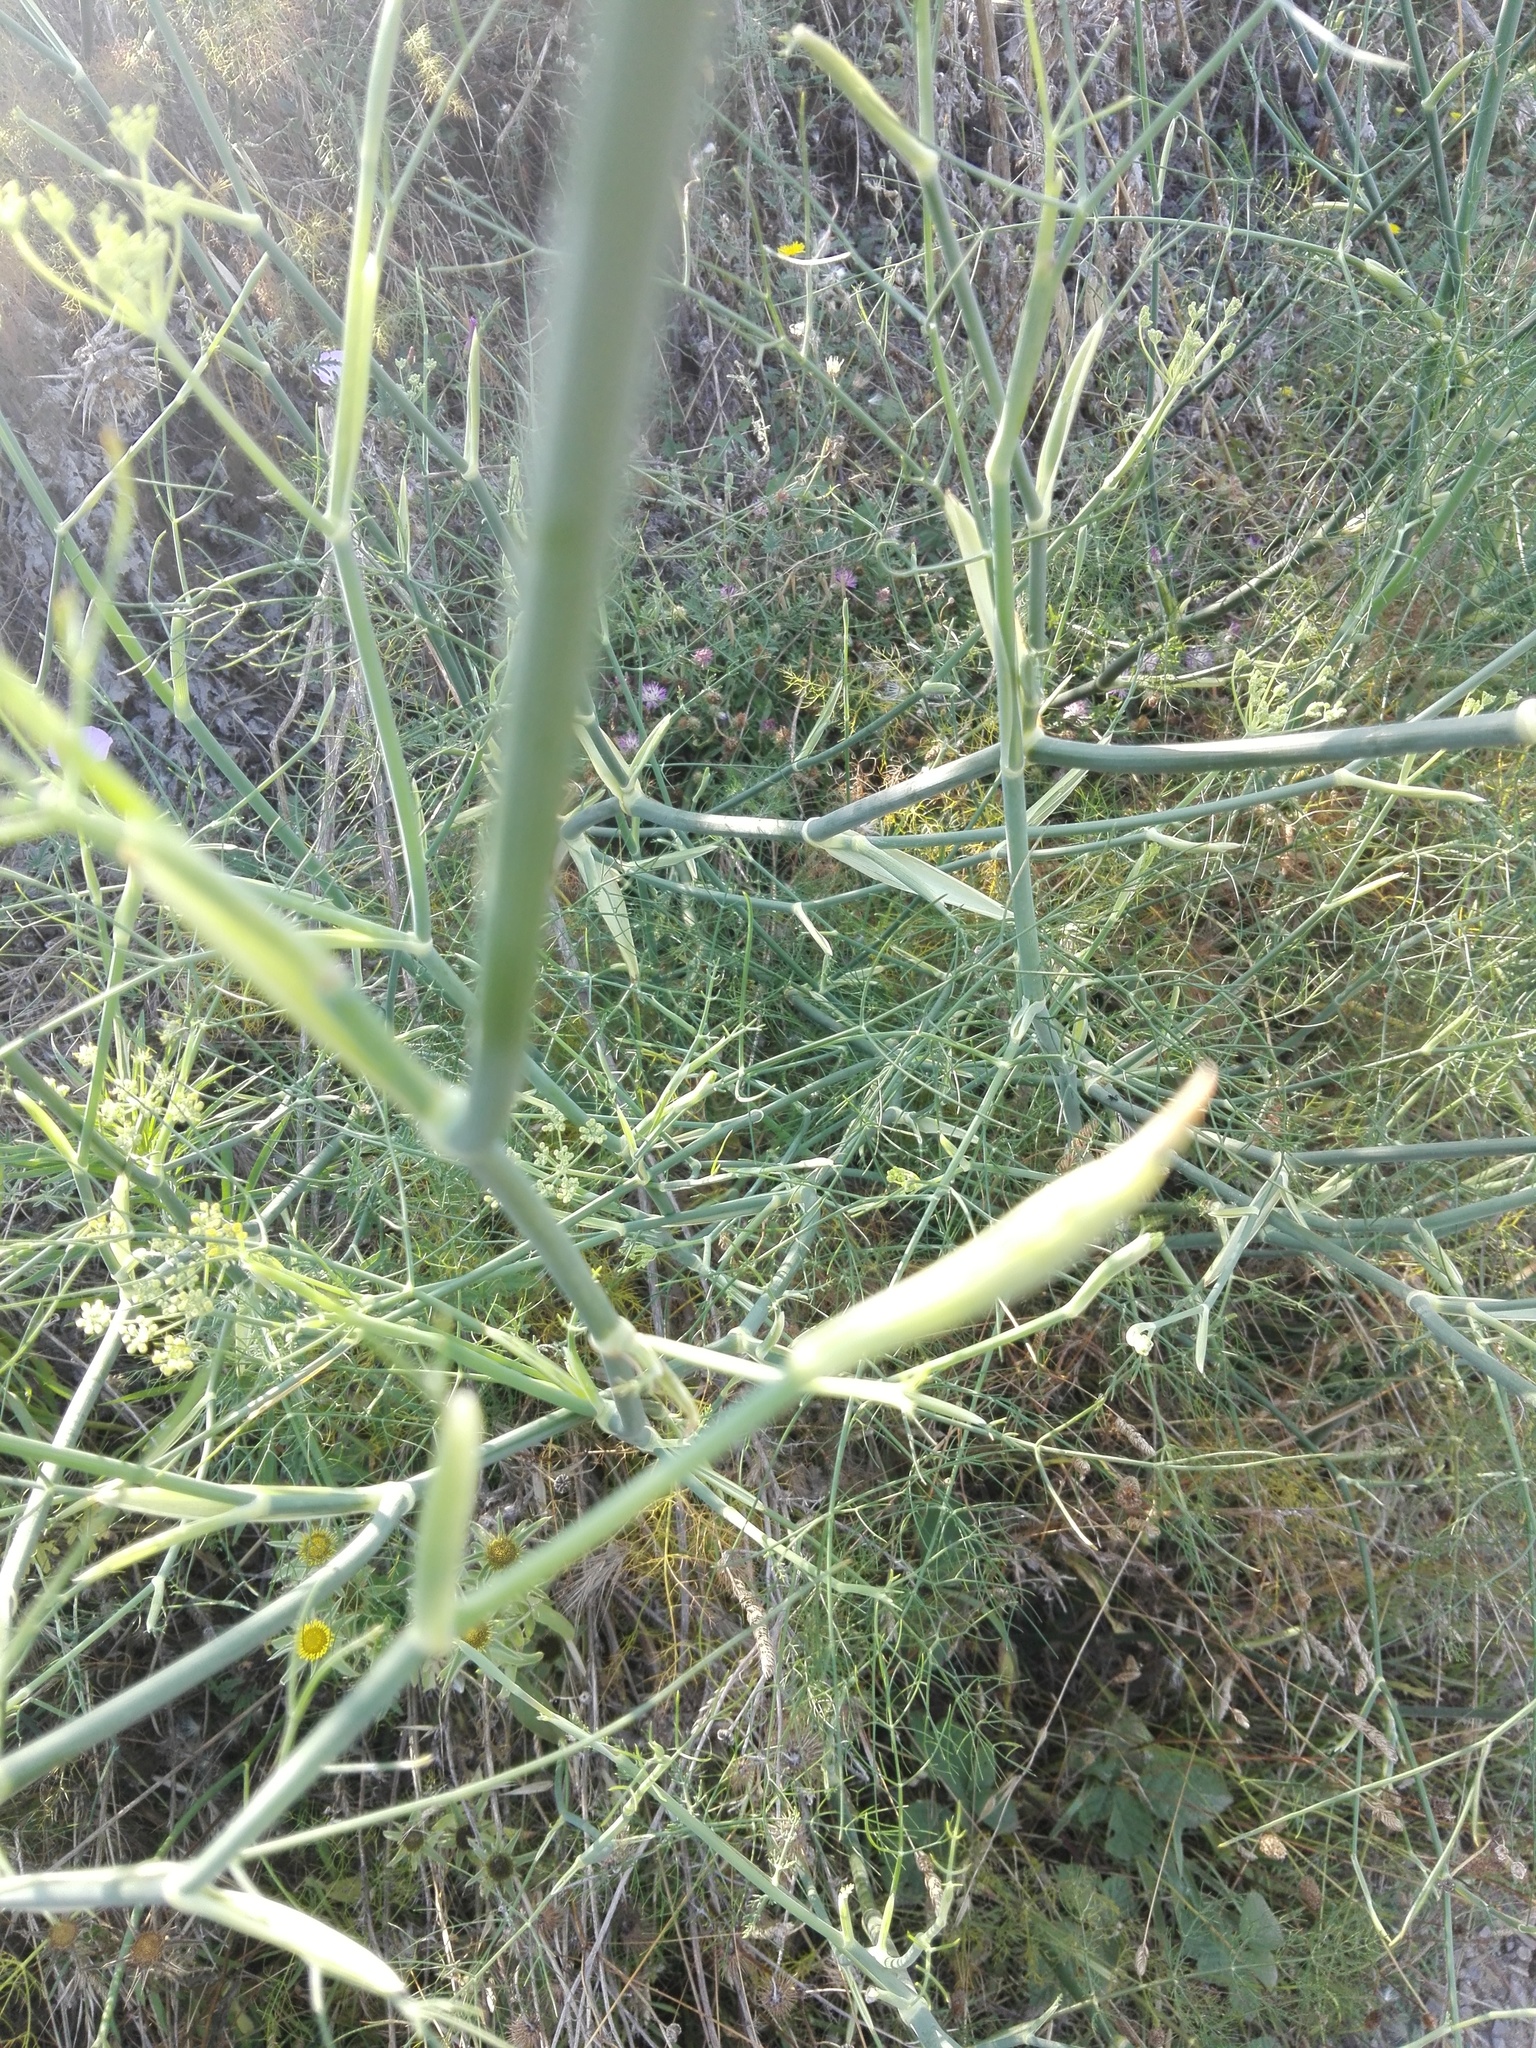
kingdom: Plantae
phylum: Tracheophyta
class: Magnoliopsida
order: Apiales
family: Apiaceae
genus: Foeniculum
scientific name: Foeniculum vulgare
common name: Fennel
